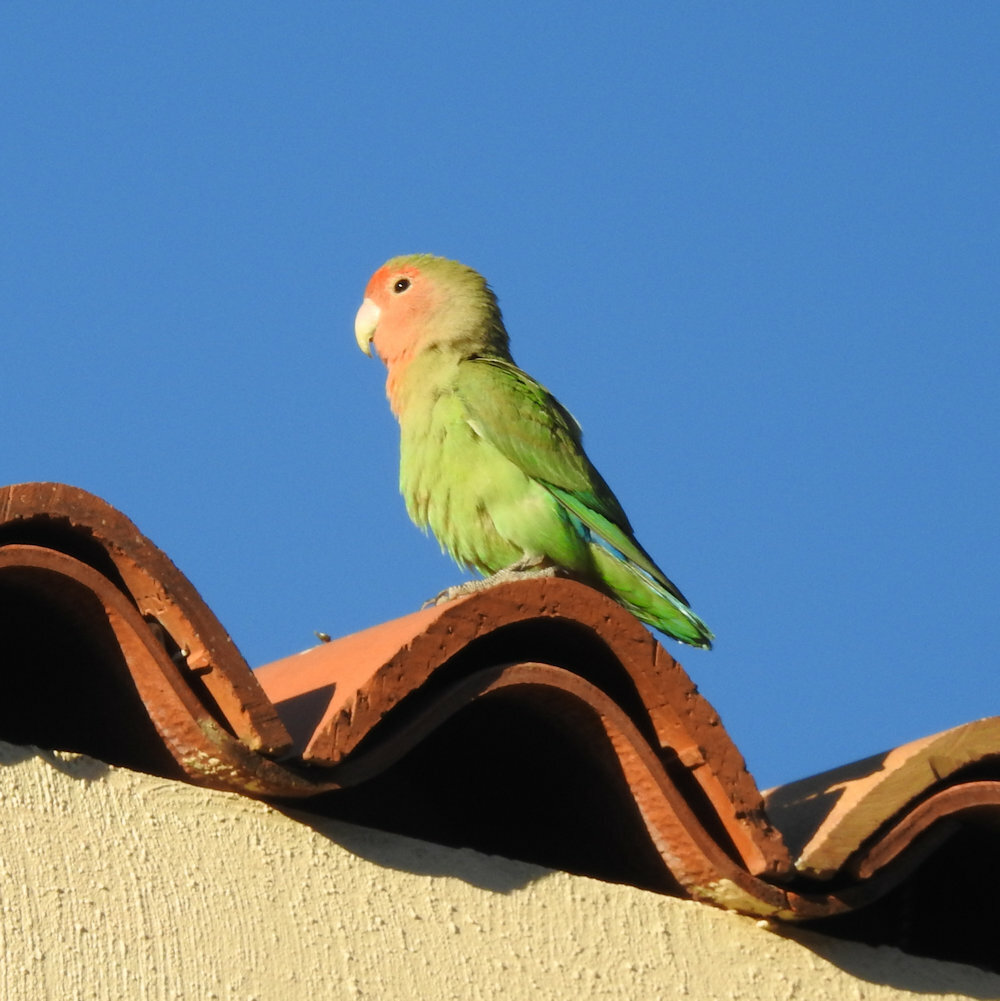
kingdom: Animalia
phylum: Chordata
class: Aves
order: Psittaciformes
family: Psittacidae
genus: Agapornis
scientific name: Agapornis roseicollis
